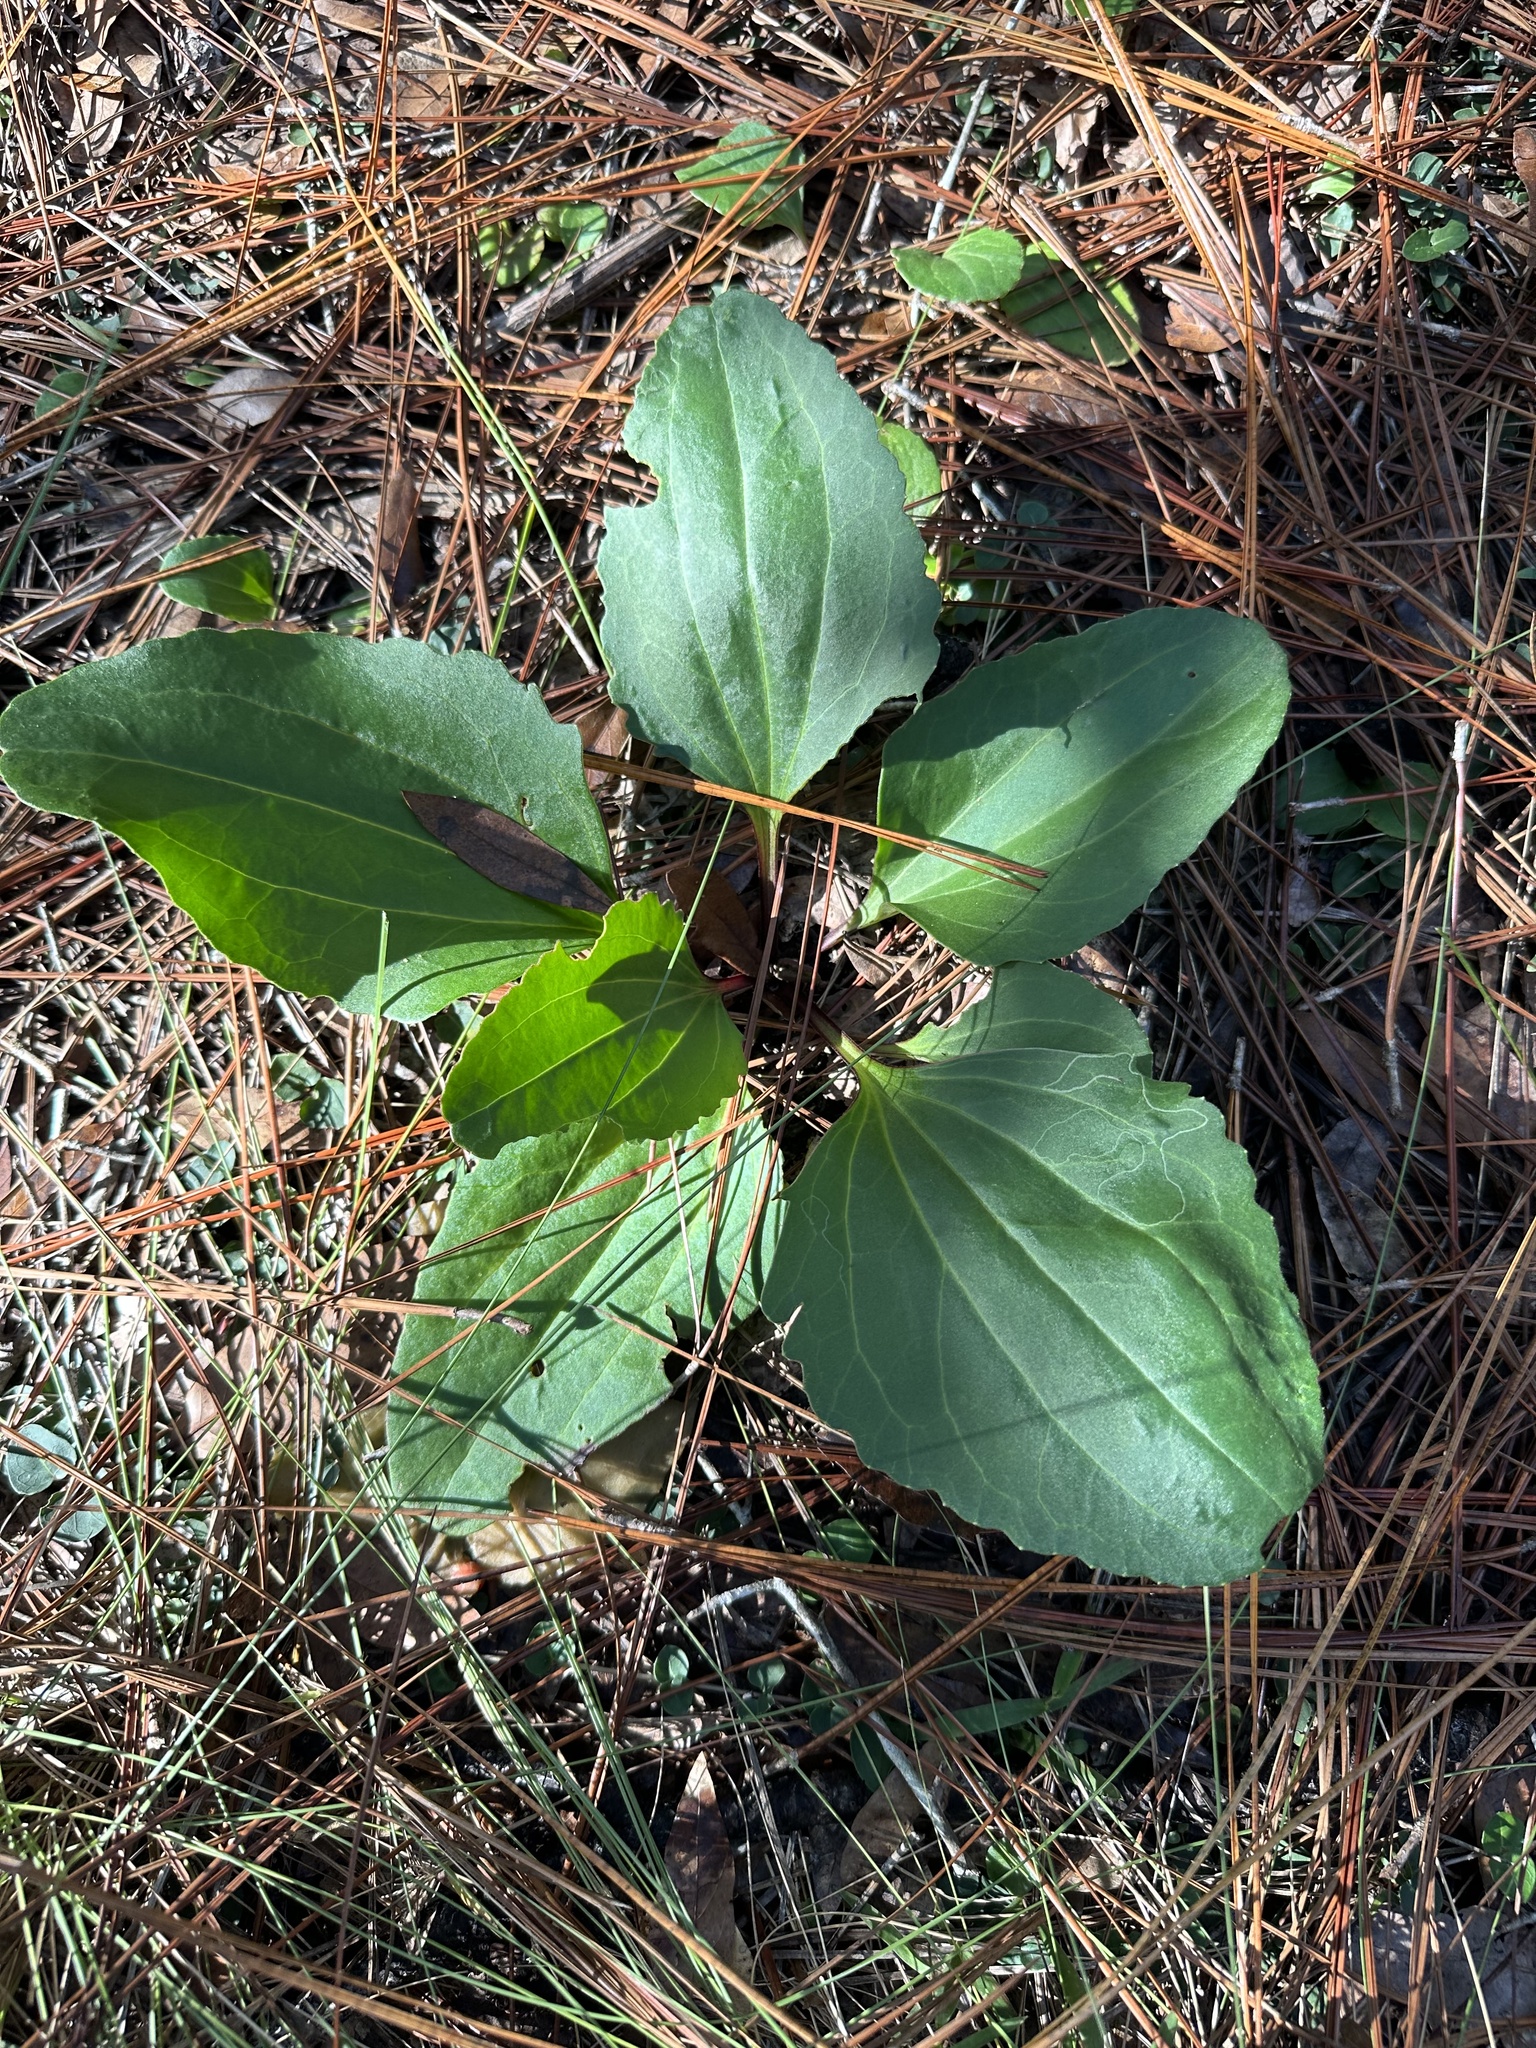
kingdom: Plantae
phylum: Tracheophyta
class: Magnoliopsida
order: Asterales
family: Asteraceae
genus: Arnoglossum
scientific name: Arnoglossum floridanum
